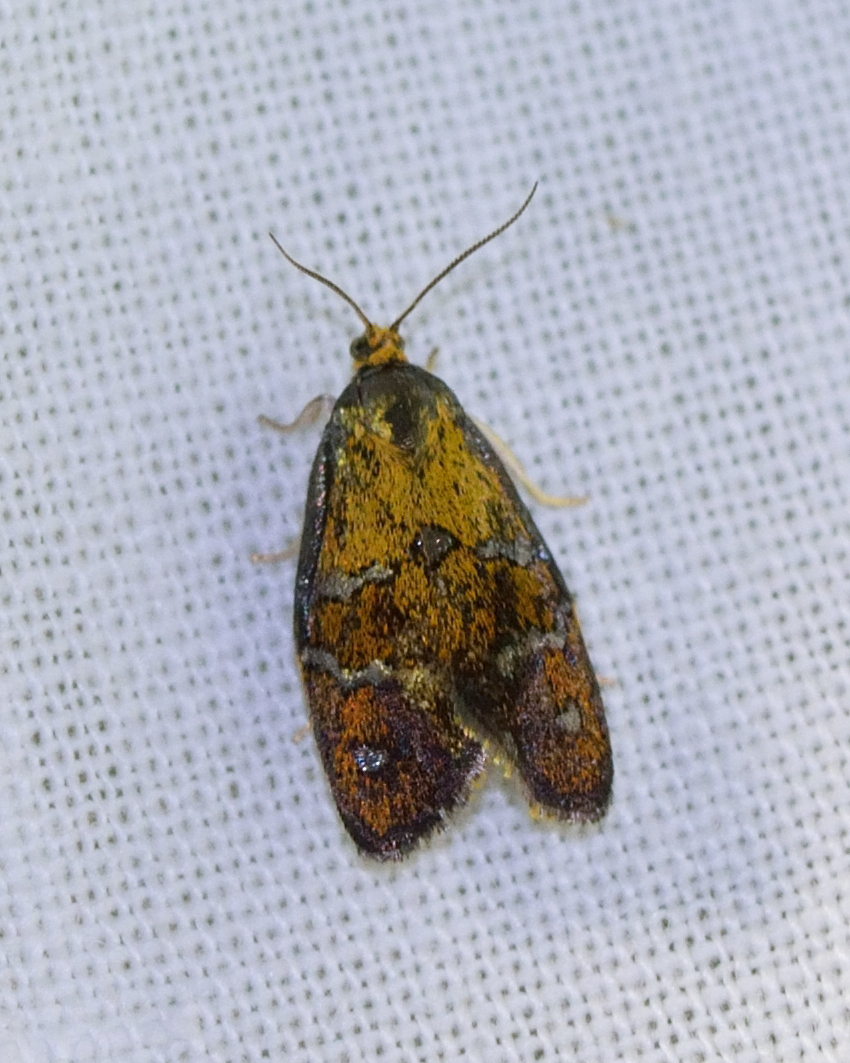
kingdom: Animalia
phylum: Arthropoda
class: Insecta
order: Lepidoptera
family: Tortricidae
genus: Ptycholoma
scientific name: Ptycholoma lecheana
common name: Leches twist moth
